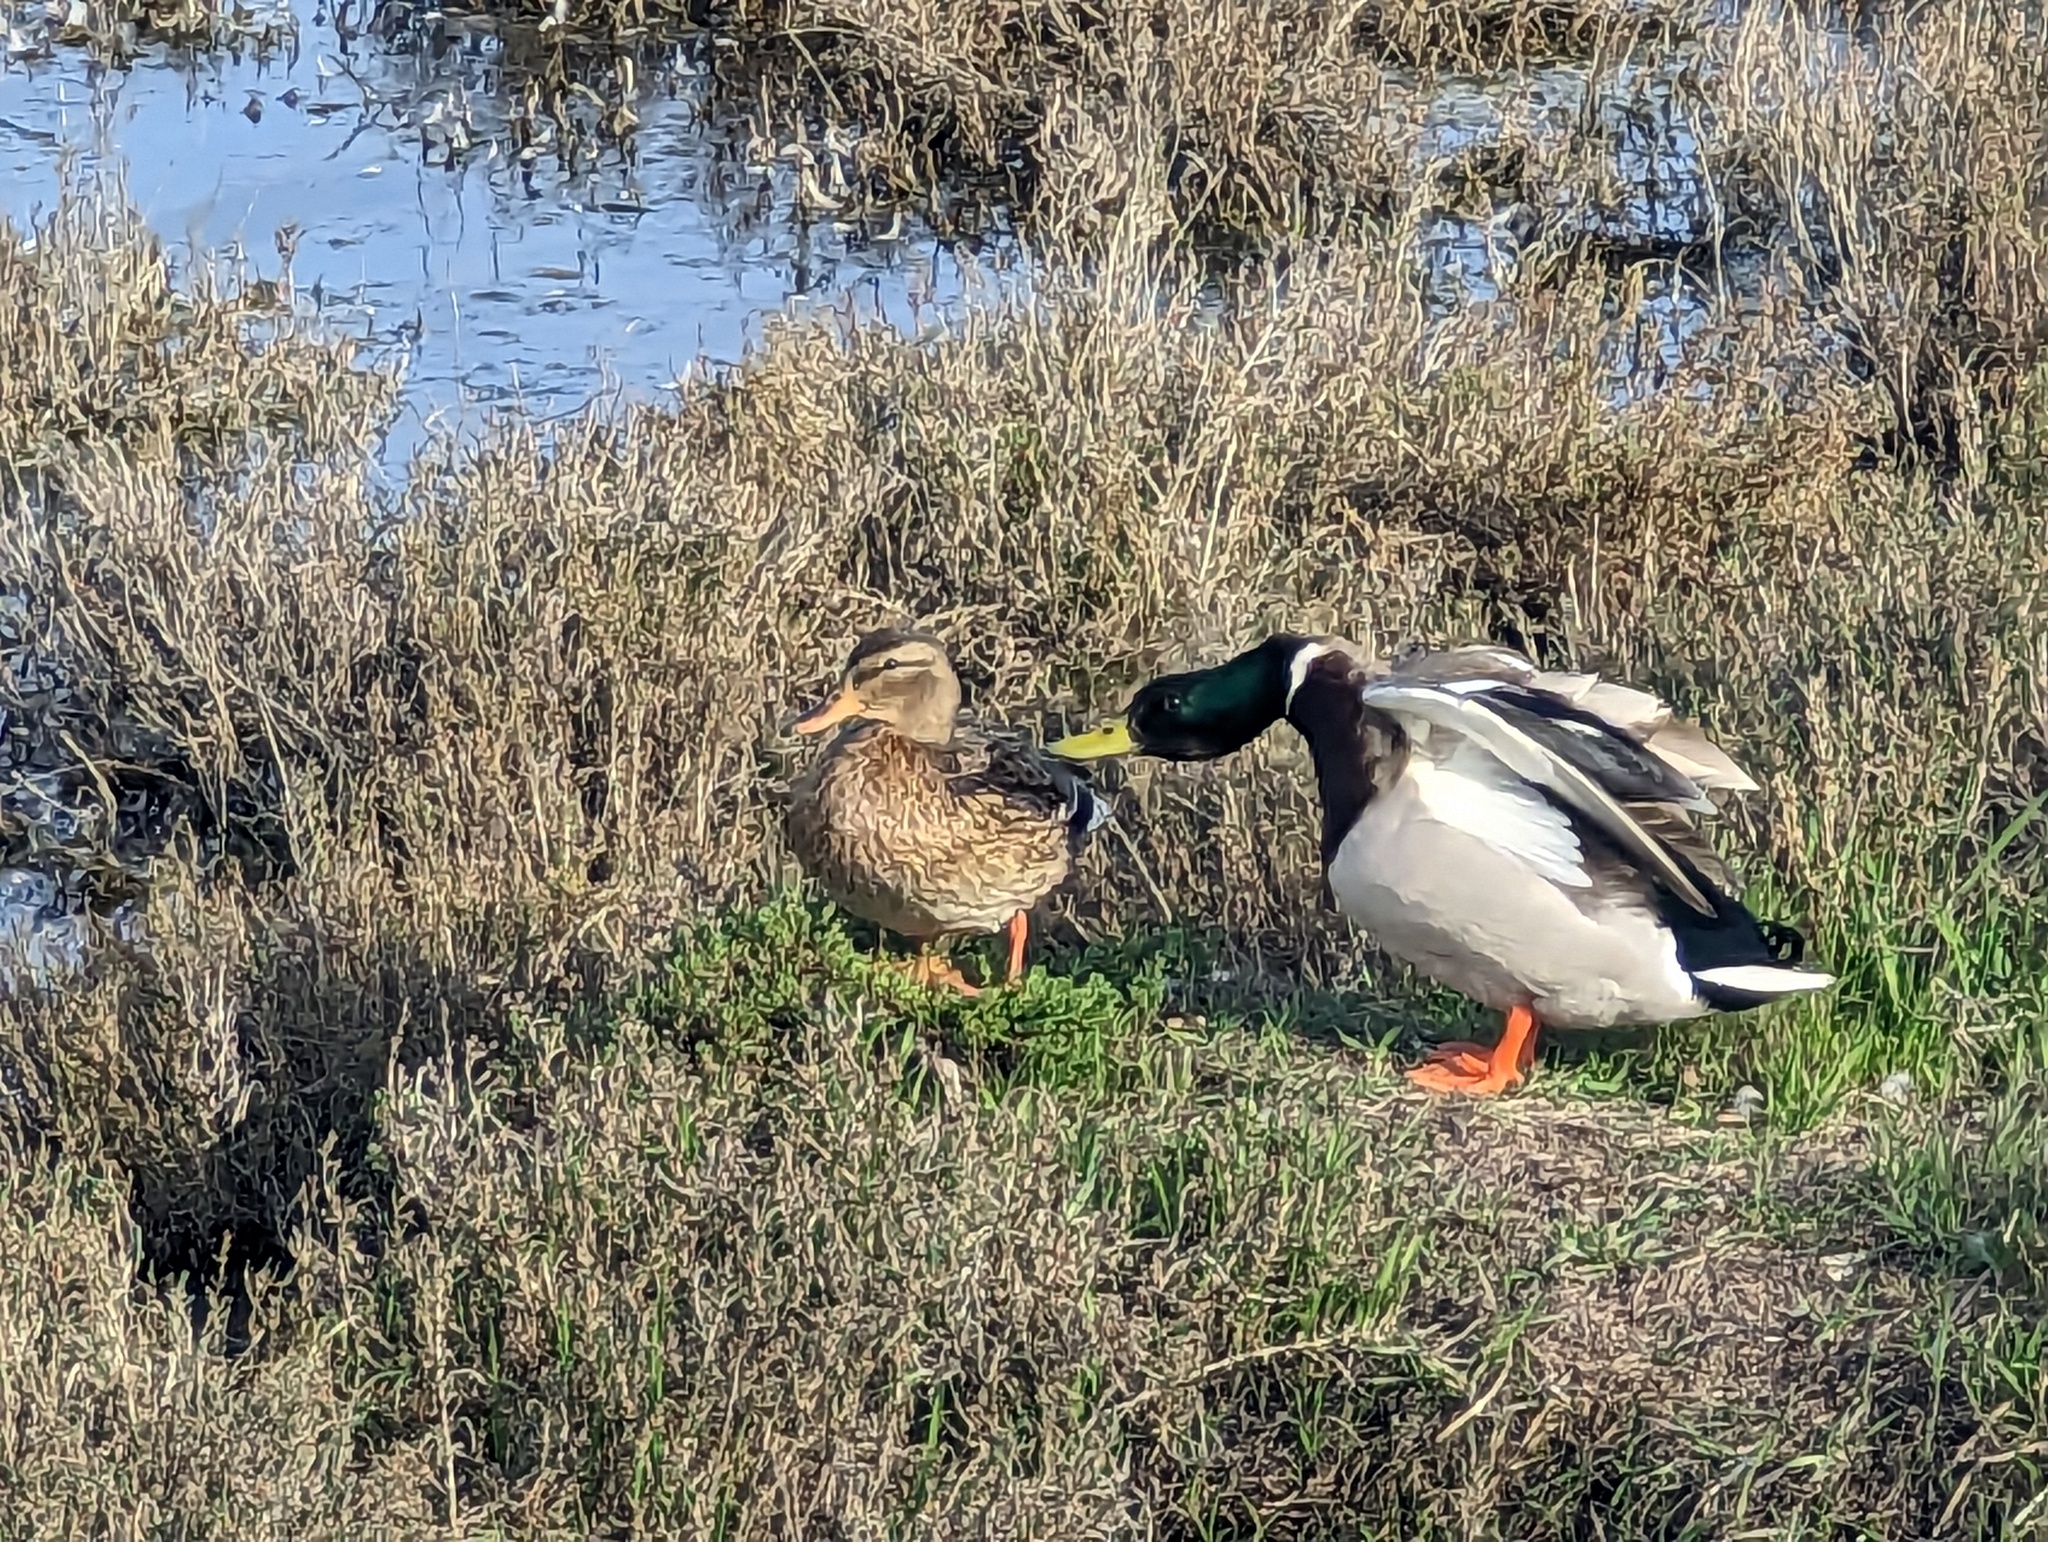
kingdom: Animalia
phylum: Chordata
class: Aves
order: Anseriformes
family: Anatidae
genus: Anas
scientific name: Anas platyrhynchos
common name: Mallard
